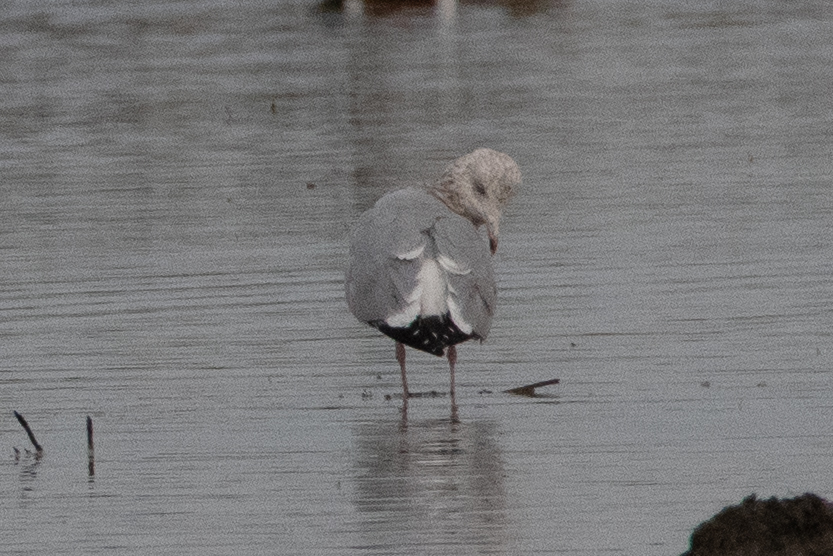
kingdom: Animalia
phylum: Chordata
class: Aves
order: Charadriiformes
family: Laridae
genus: Larus
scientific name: Larus argentatus
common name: Herring gull
